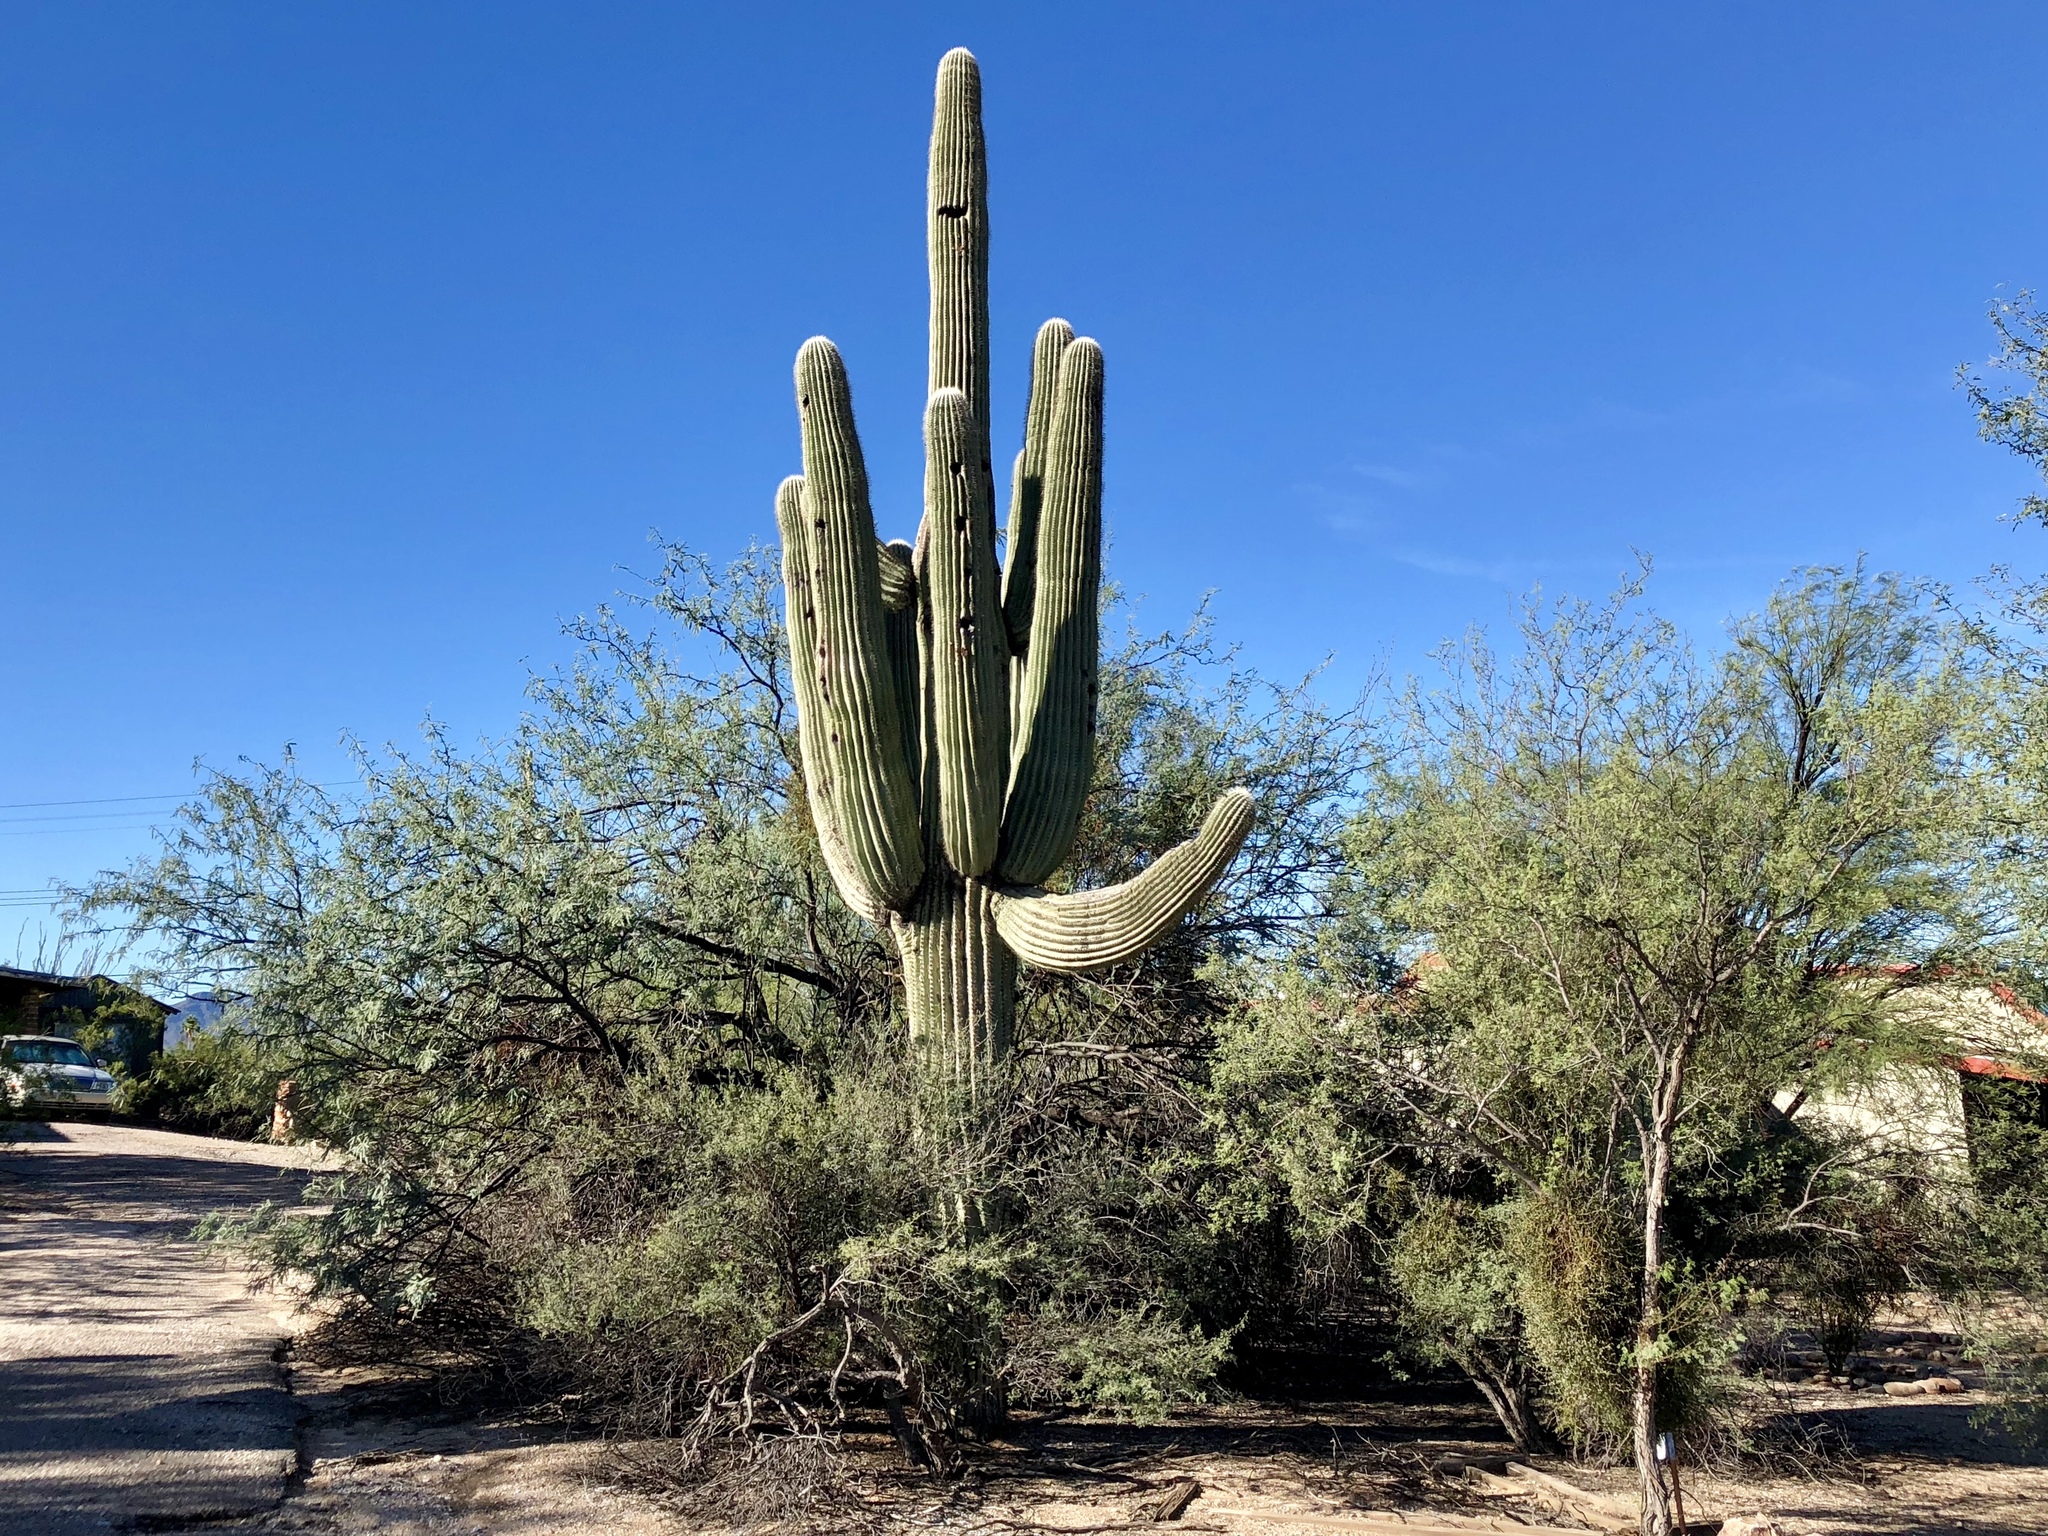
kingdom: Plantae
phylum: Tracheophyta
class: Magnoliopsida
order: Caryophyllales
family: Cactaceae
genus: Carnegiea
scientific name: Carnegiea gigantea
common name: Saguaro
